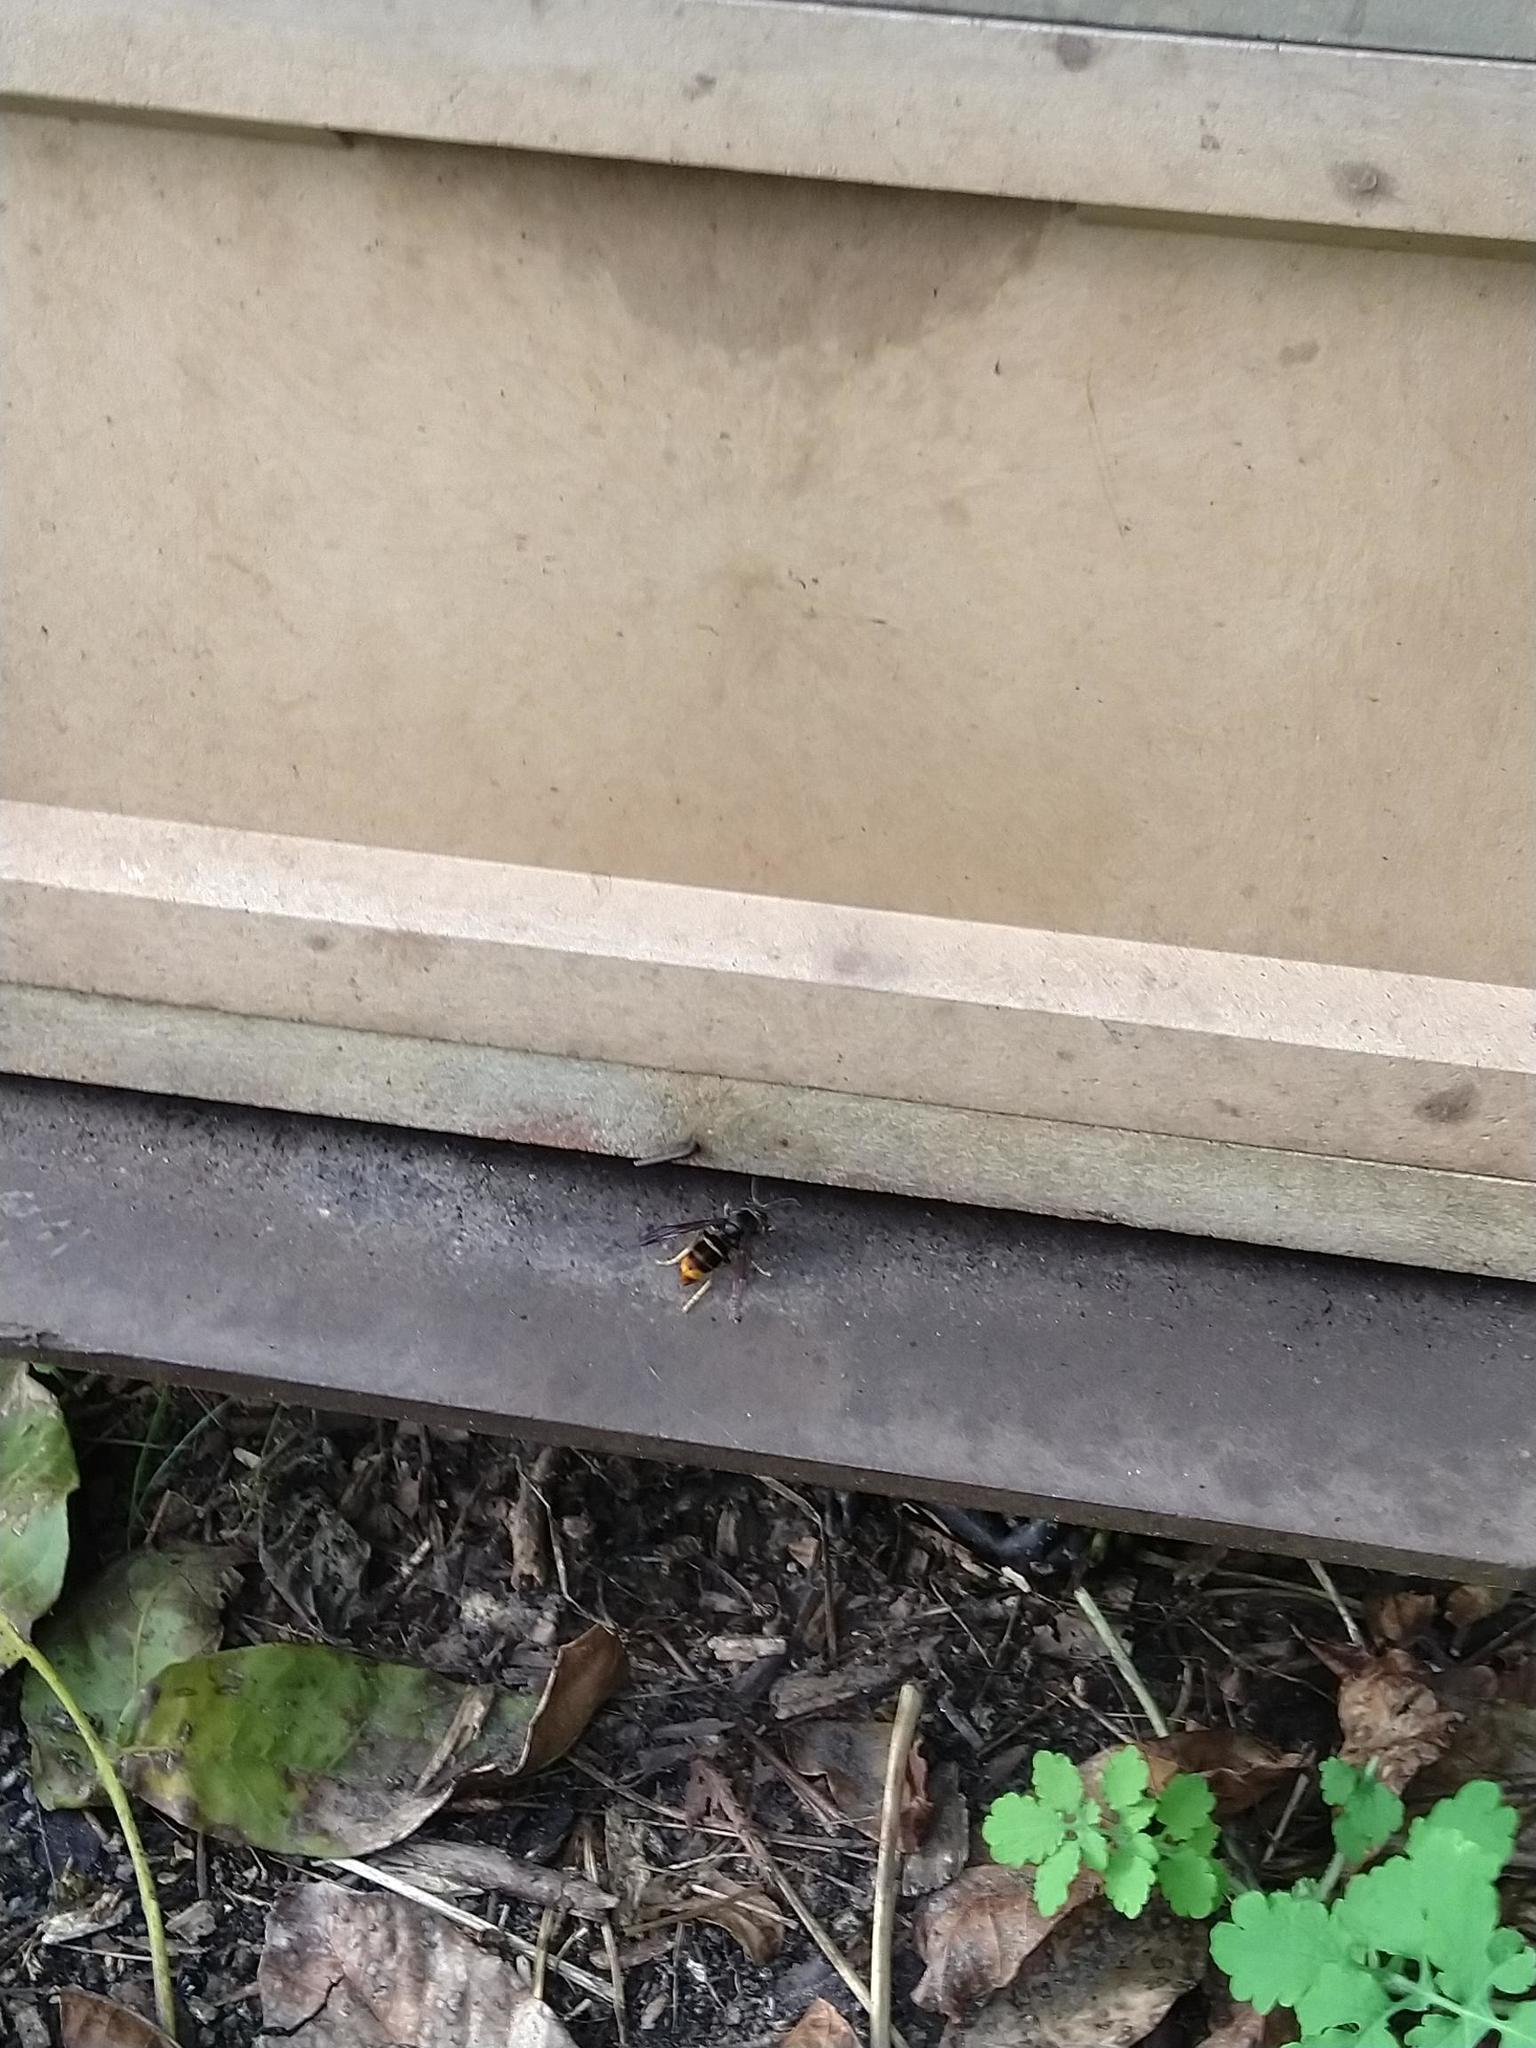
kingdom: Animalia
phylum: Arthropoda
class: Insecta
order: Hymenoptera
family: Vespidae
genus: Vespa
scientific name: Vespa velutina
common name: Asian hornet
